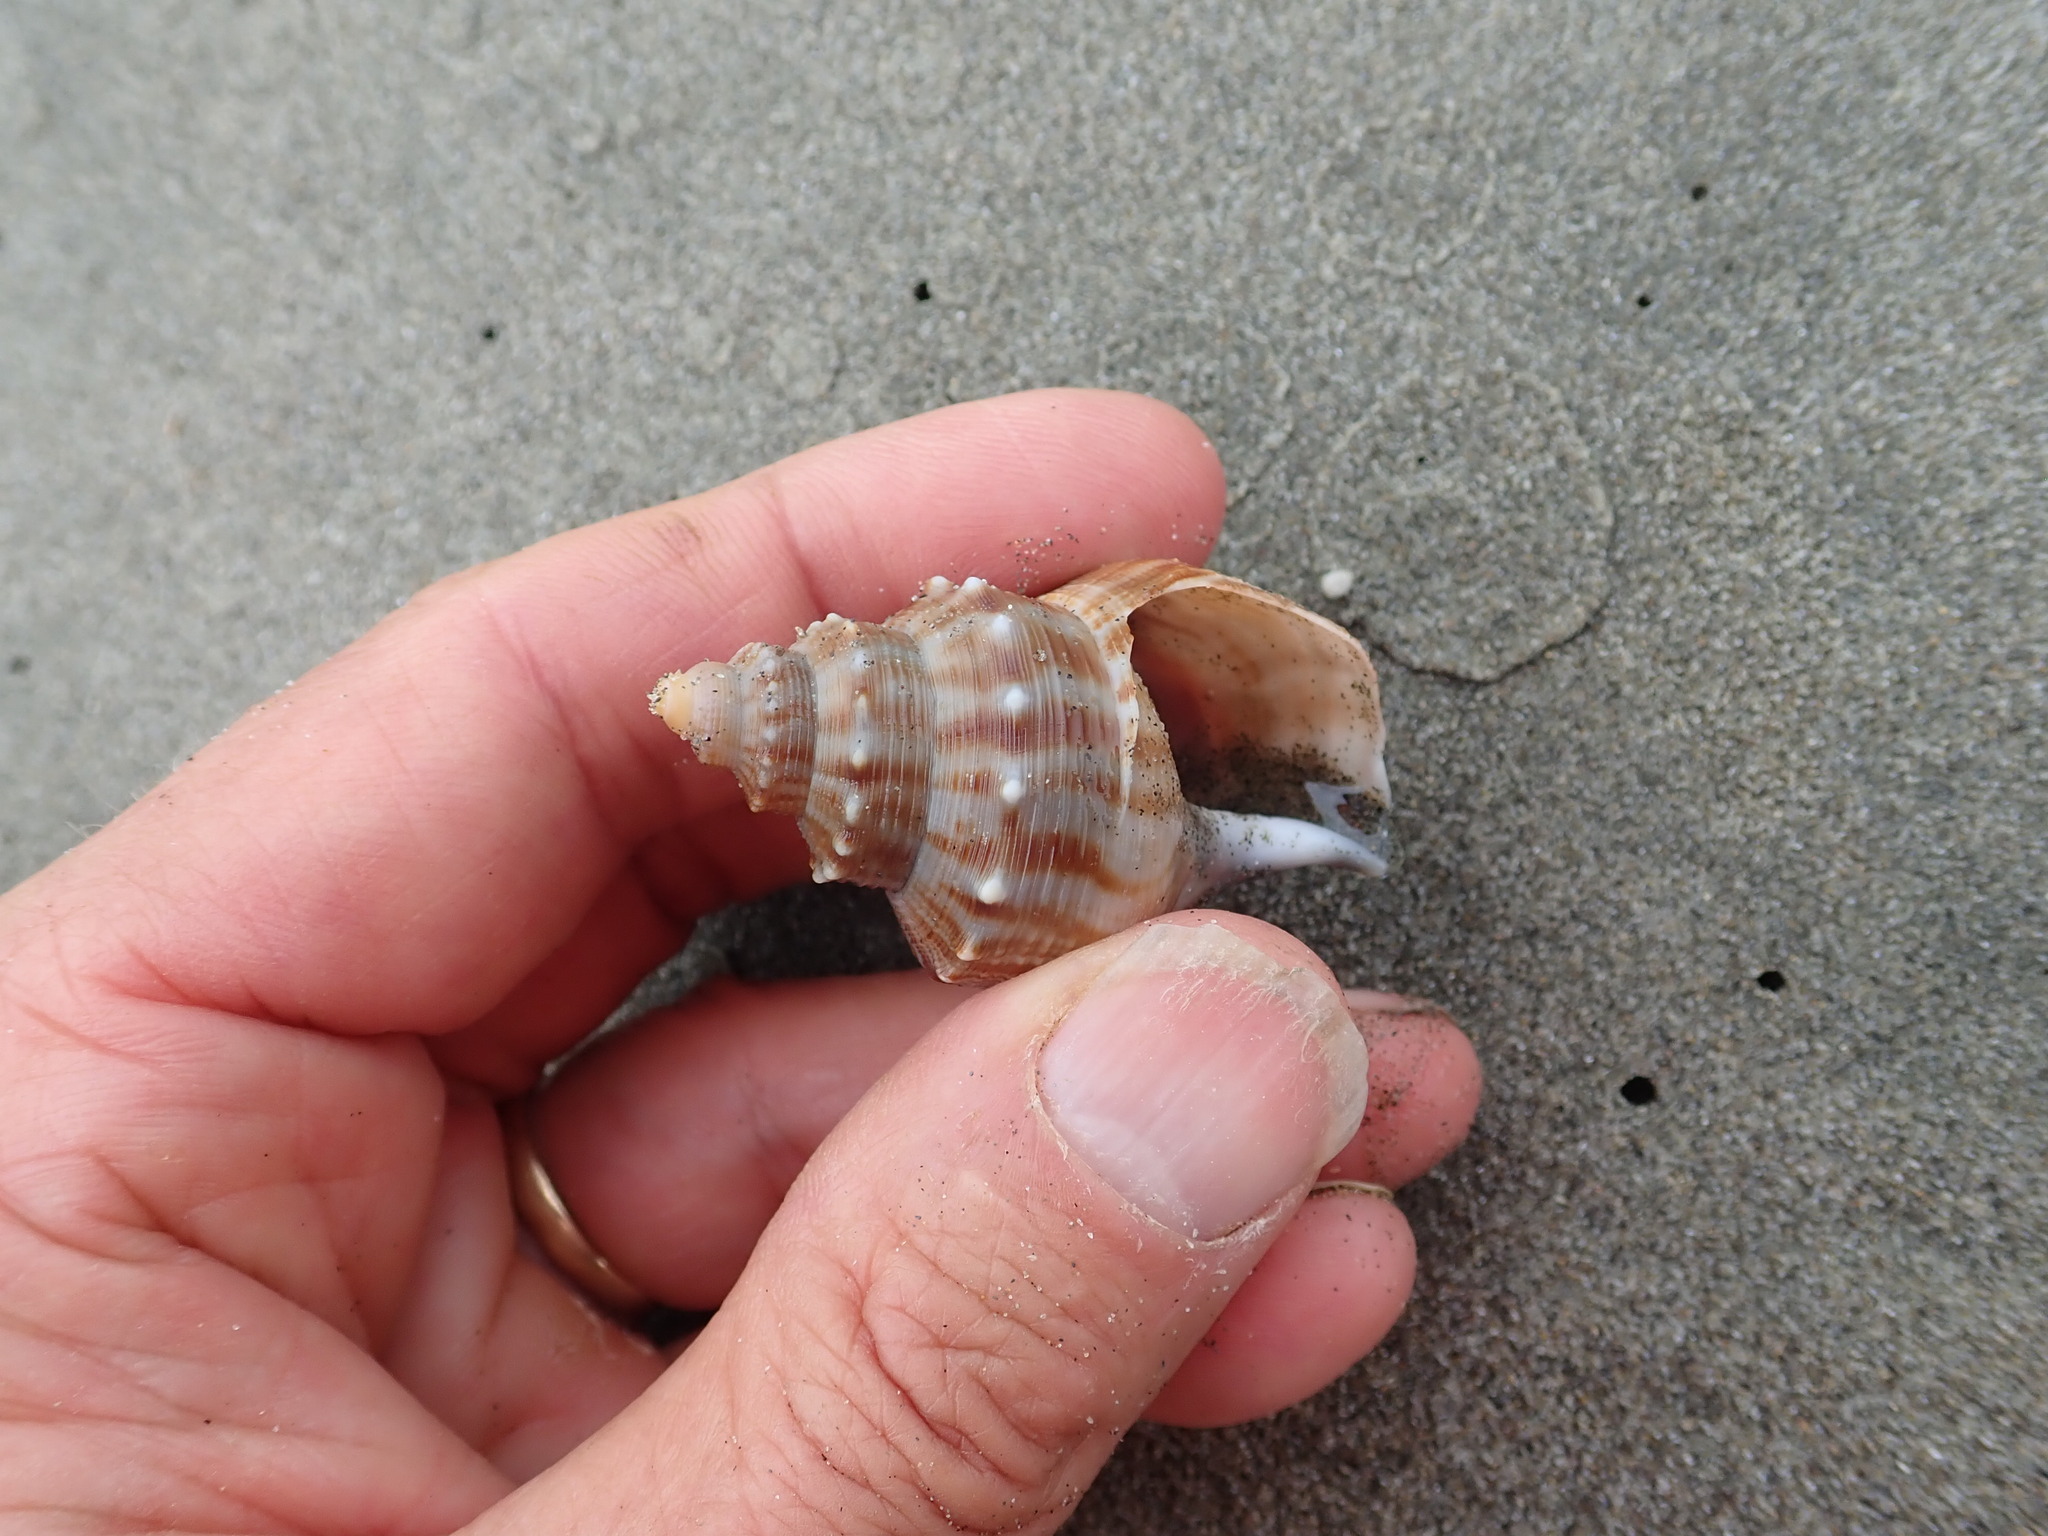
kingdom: Animalia
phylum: Mollusca
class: Gastropoda
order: Littorinimorpha
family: Struthiolariidae
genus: Struthiolaria
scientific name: Struthiolaria papulosa
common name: Large ostrich foot
